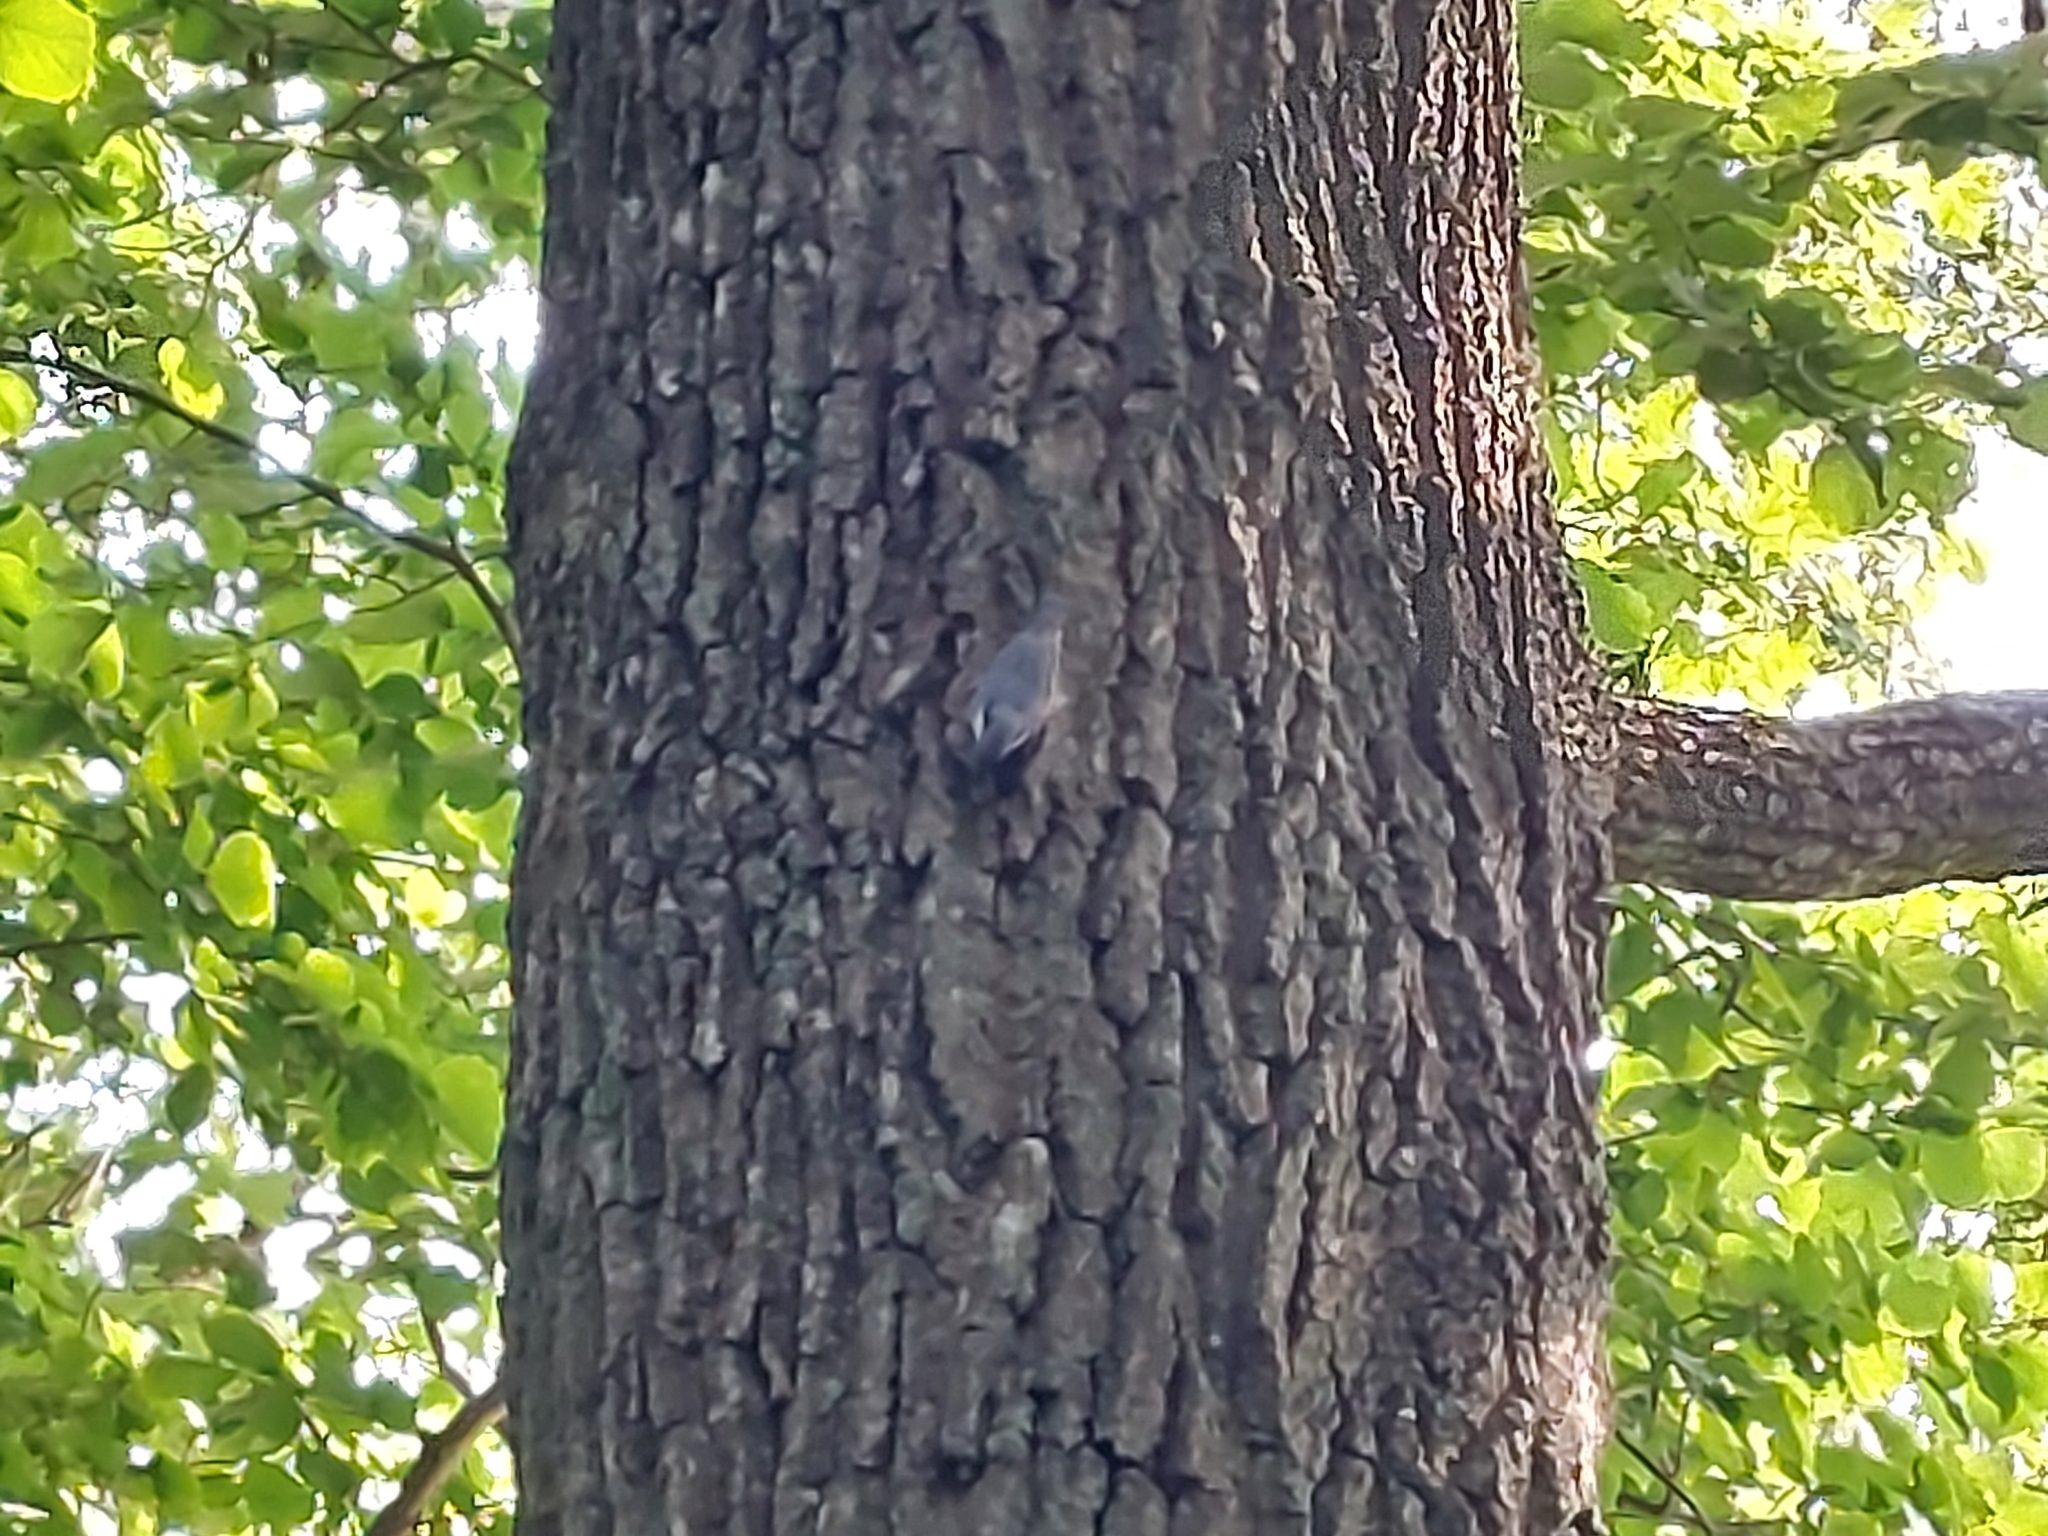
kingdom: Animalia
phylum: Chordata
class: Aves
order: Passeriformes
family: Sittidae
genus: Sitta
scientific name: Sitta europaea
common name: Eurasian nuthatch
